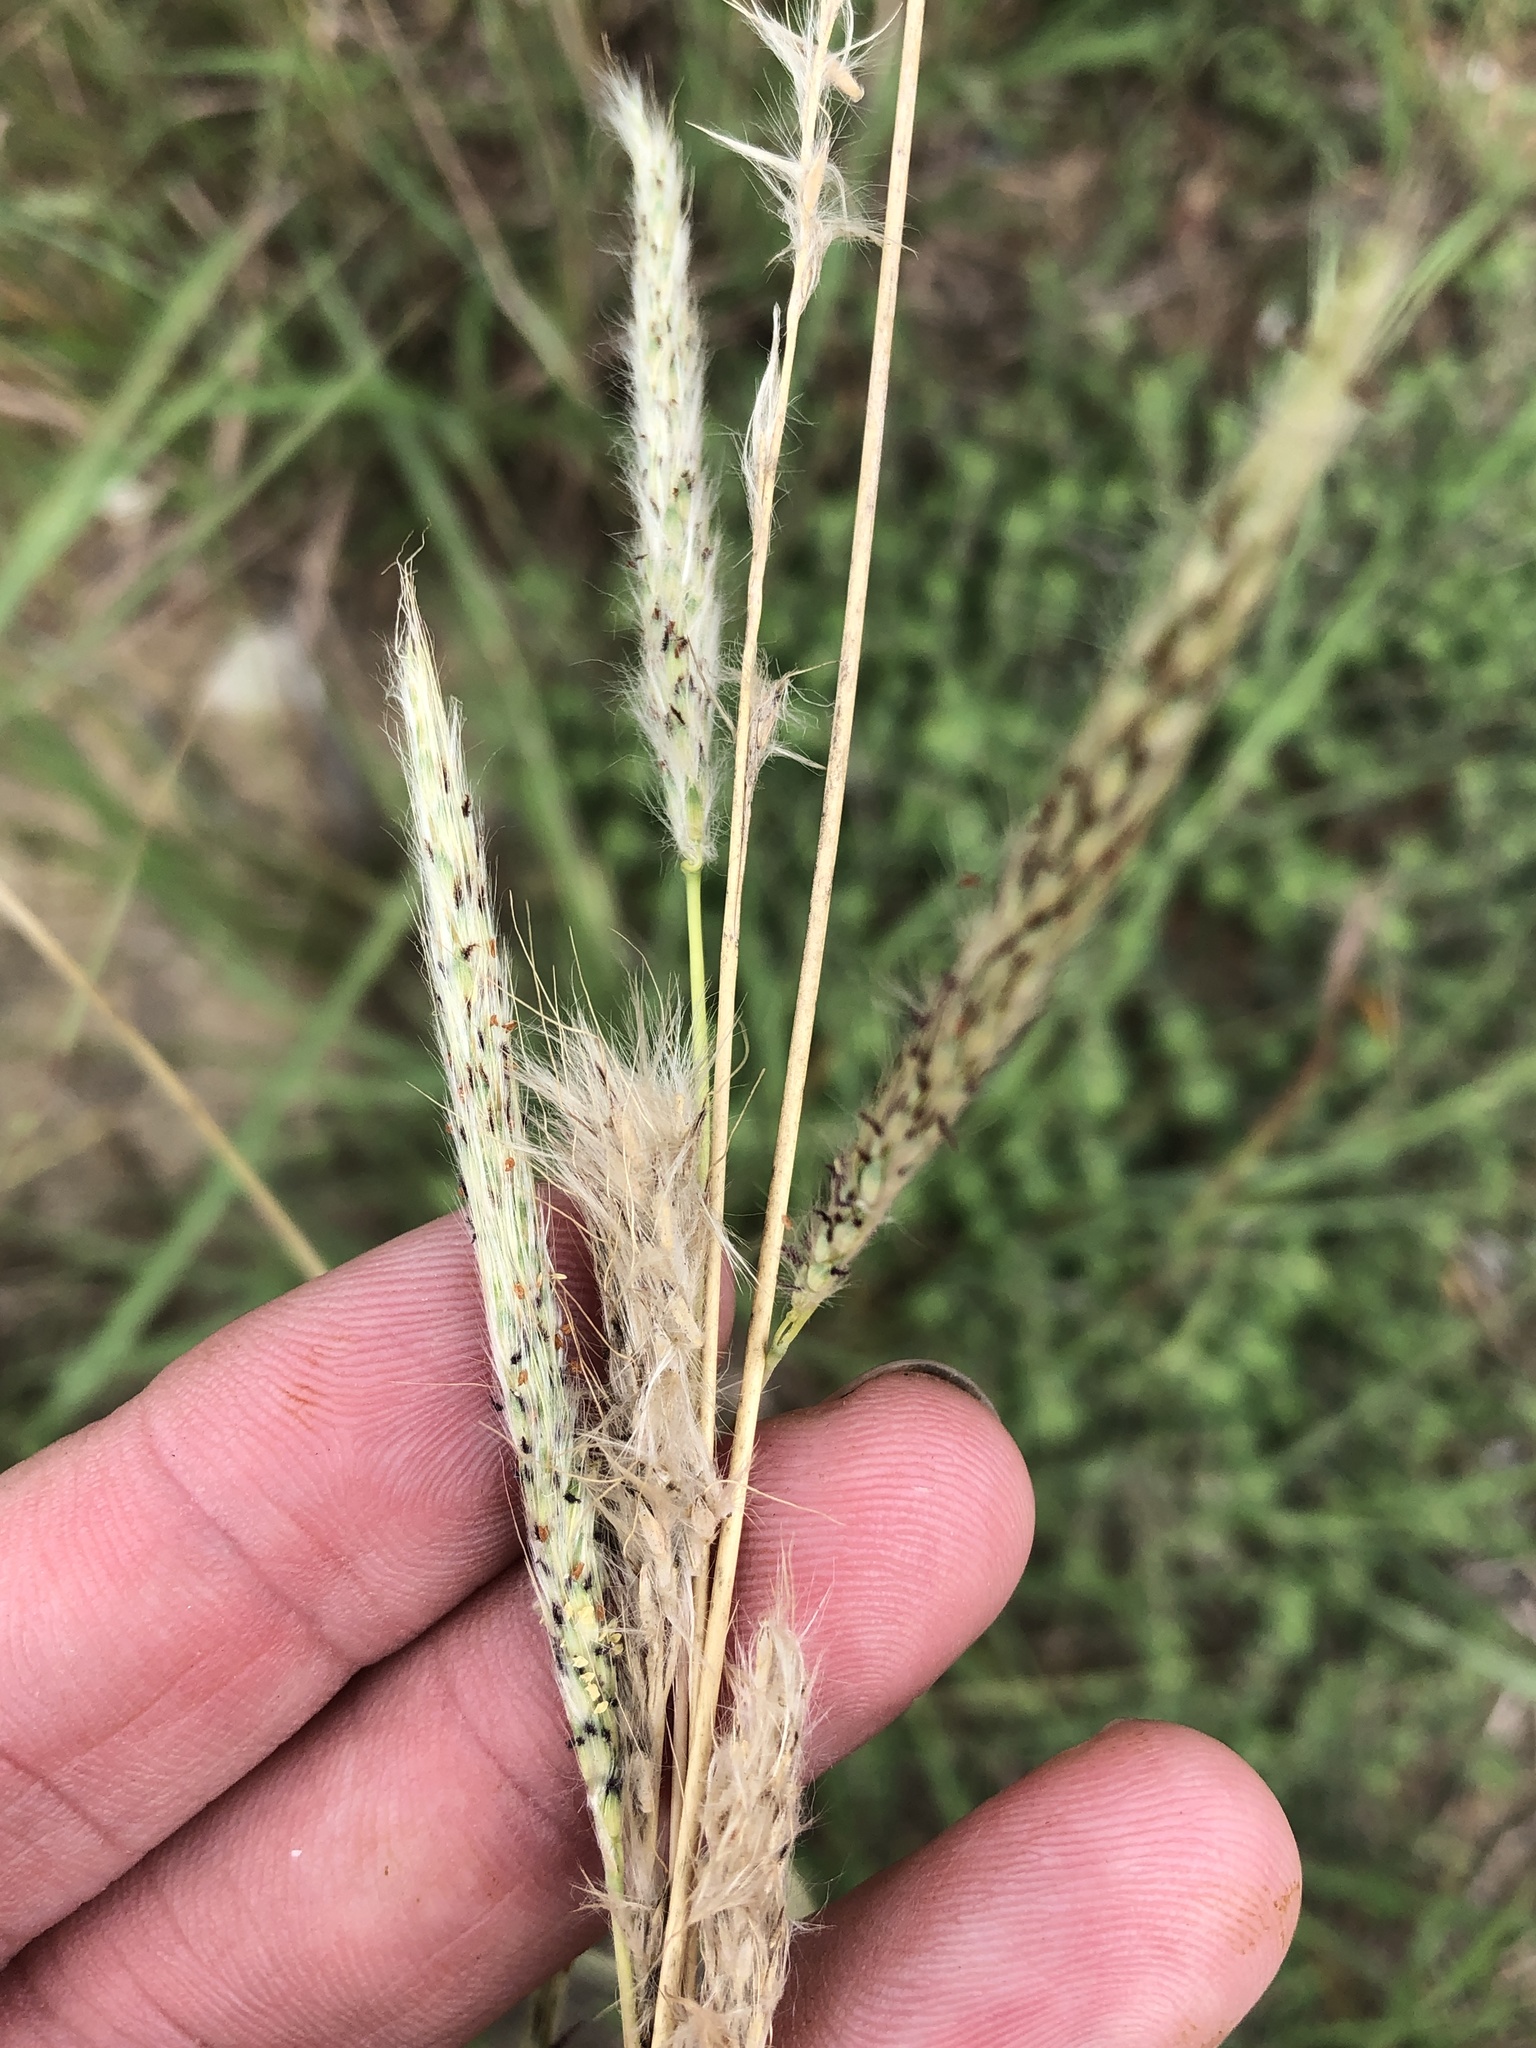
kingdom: Plantae
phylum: Tracheophyta
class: Liliopsida
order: Poales
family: Poaceae
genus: Bothriochloa
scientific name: Bothriochloa torreyana
